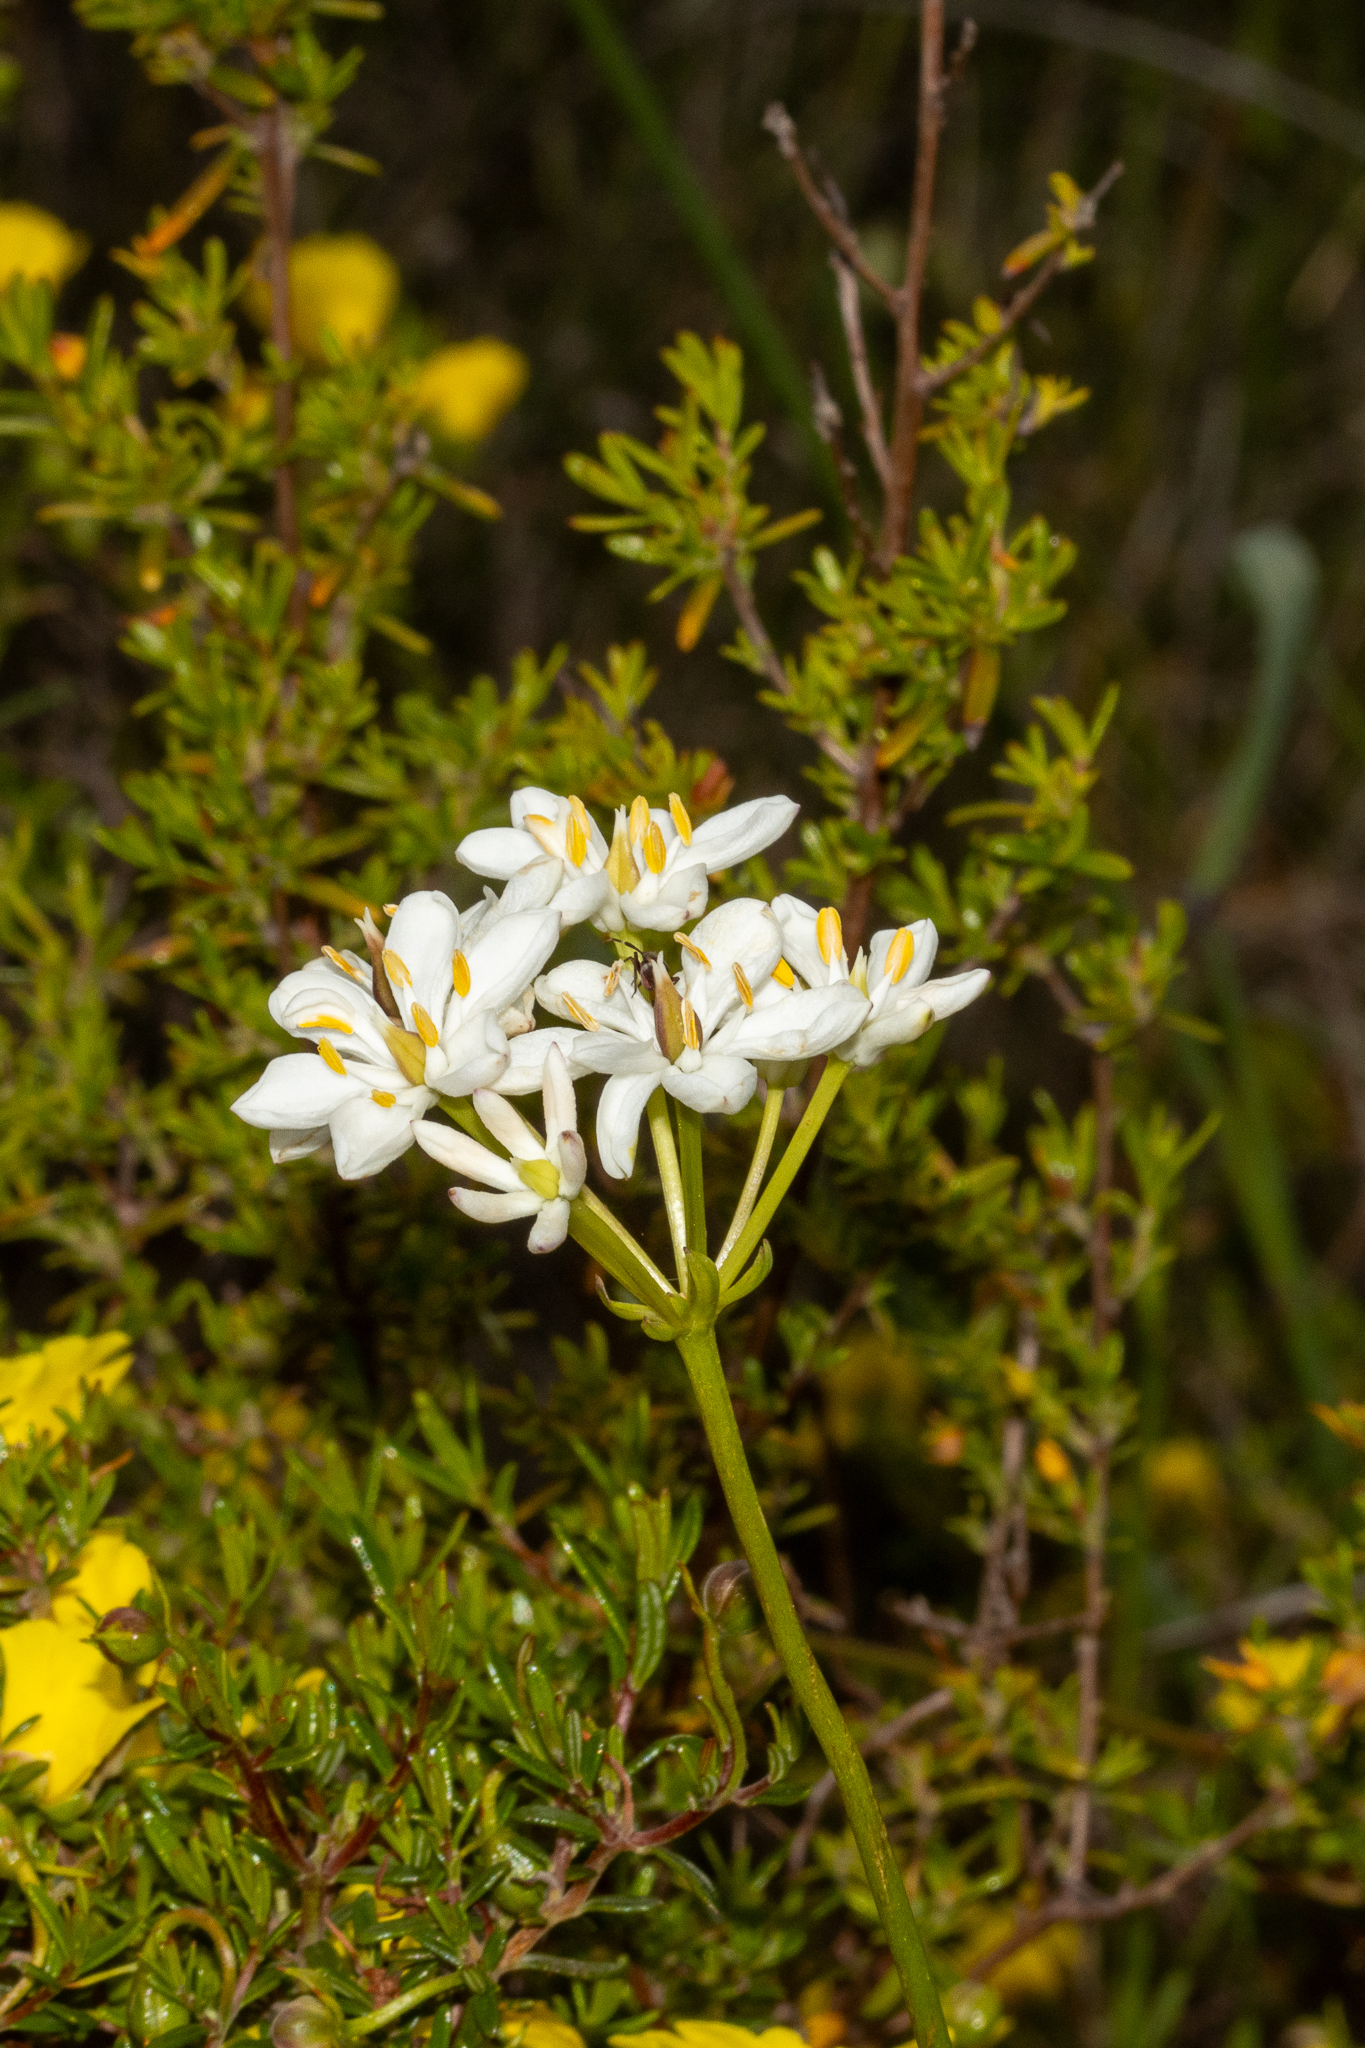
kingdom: Plantae
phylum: Tracheophyta
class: Liliopsida
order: Liliales
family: Colchicaceae
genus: Burchardia
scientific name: Burchardia congesta
